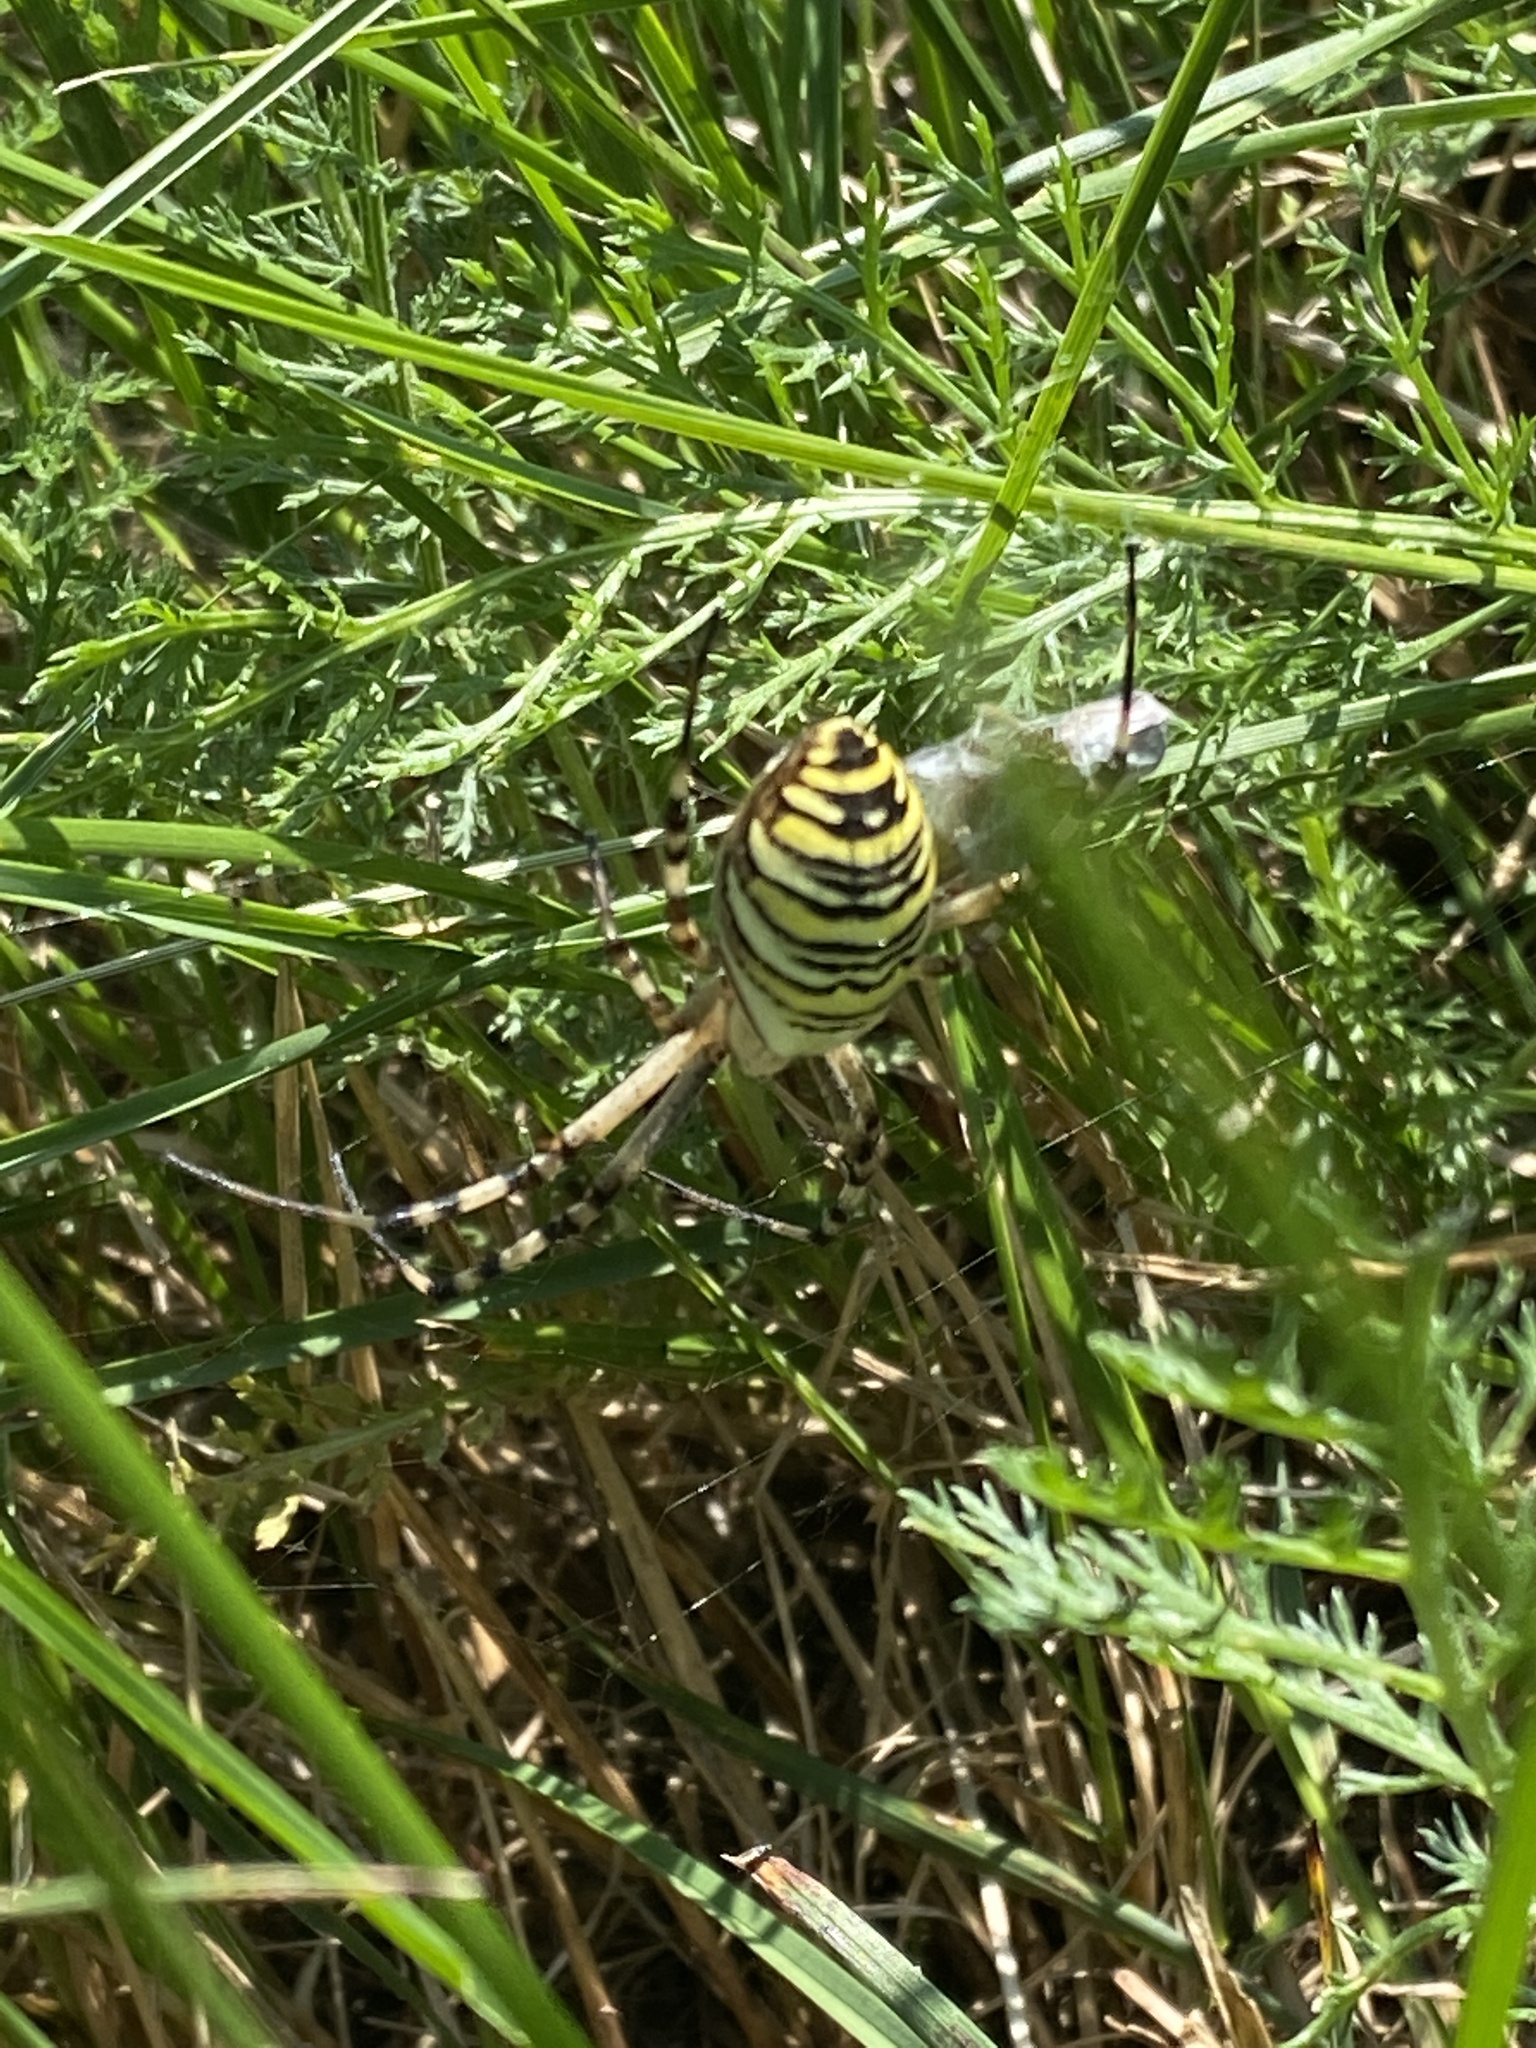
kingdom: Animalia
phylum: Arthropoda
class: Arachnida
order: Araneae
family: Araneidae
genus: Argiope
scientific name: Argiope bruennichi
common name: Wasp spider
